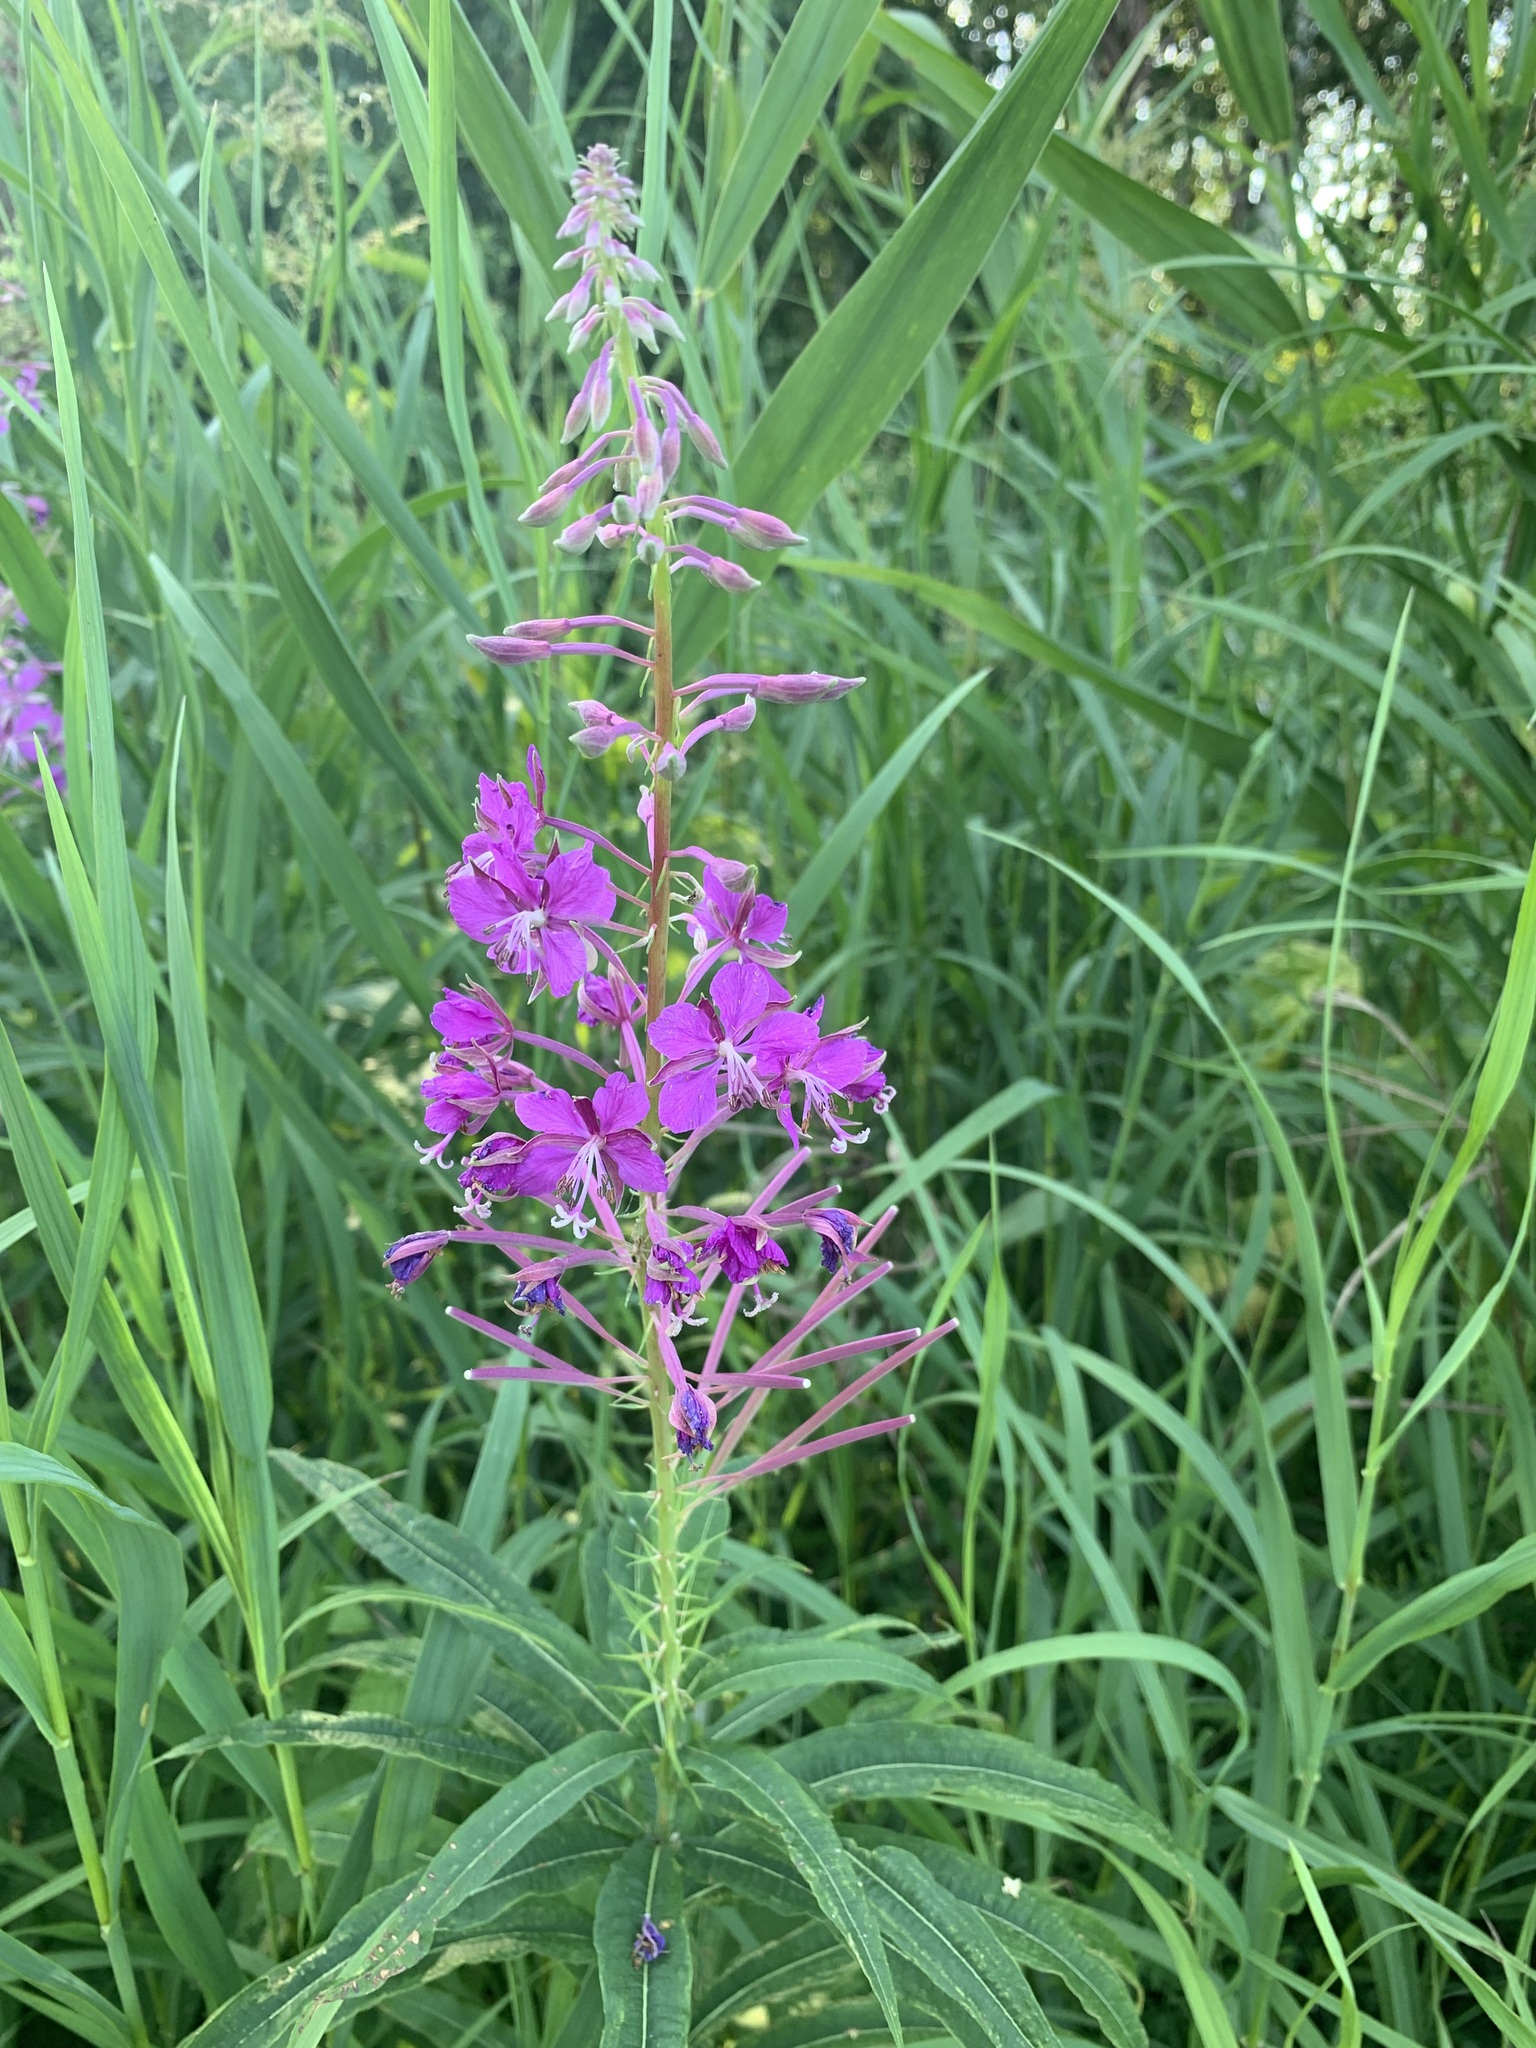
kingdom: Plantae
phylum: Tracheophyta
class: Magnoliopsida
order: Myrtales
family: Onagraceae
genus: Chamaenerion
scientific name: Chamaenerion angustifolium
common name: Fireweed
